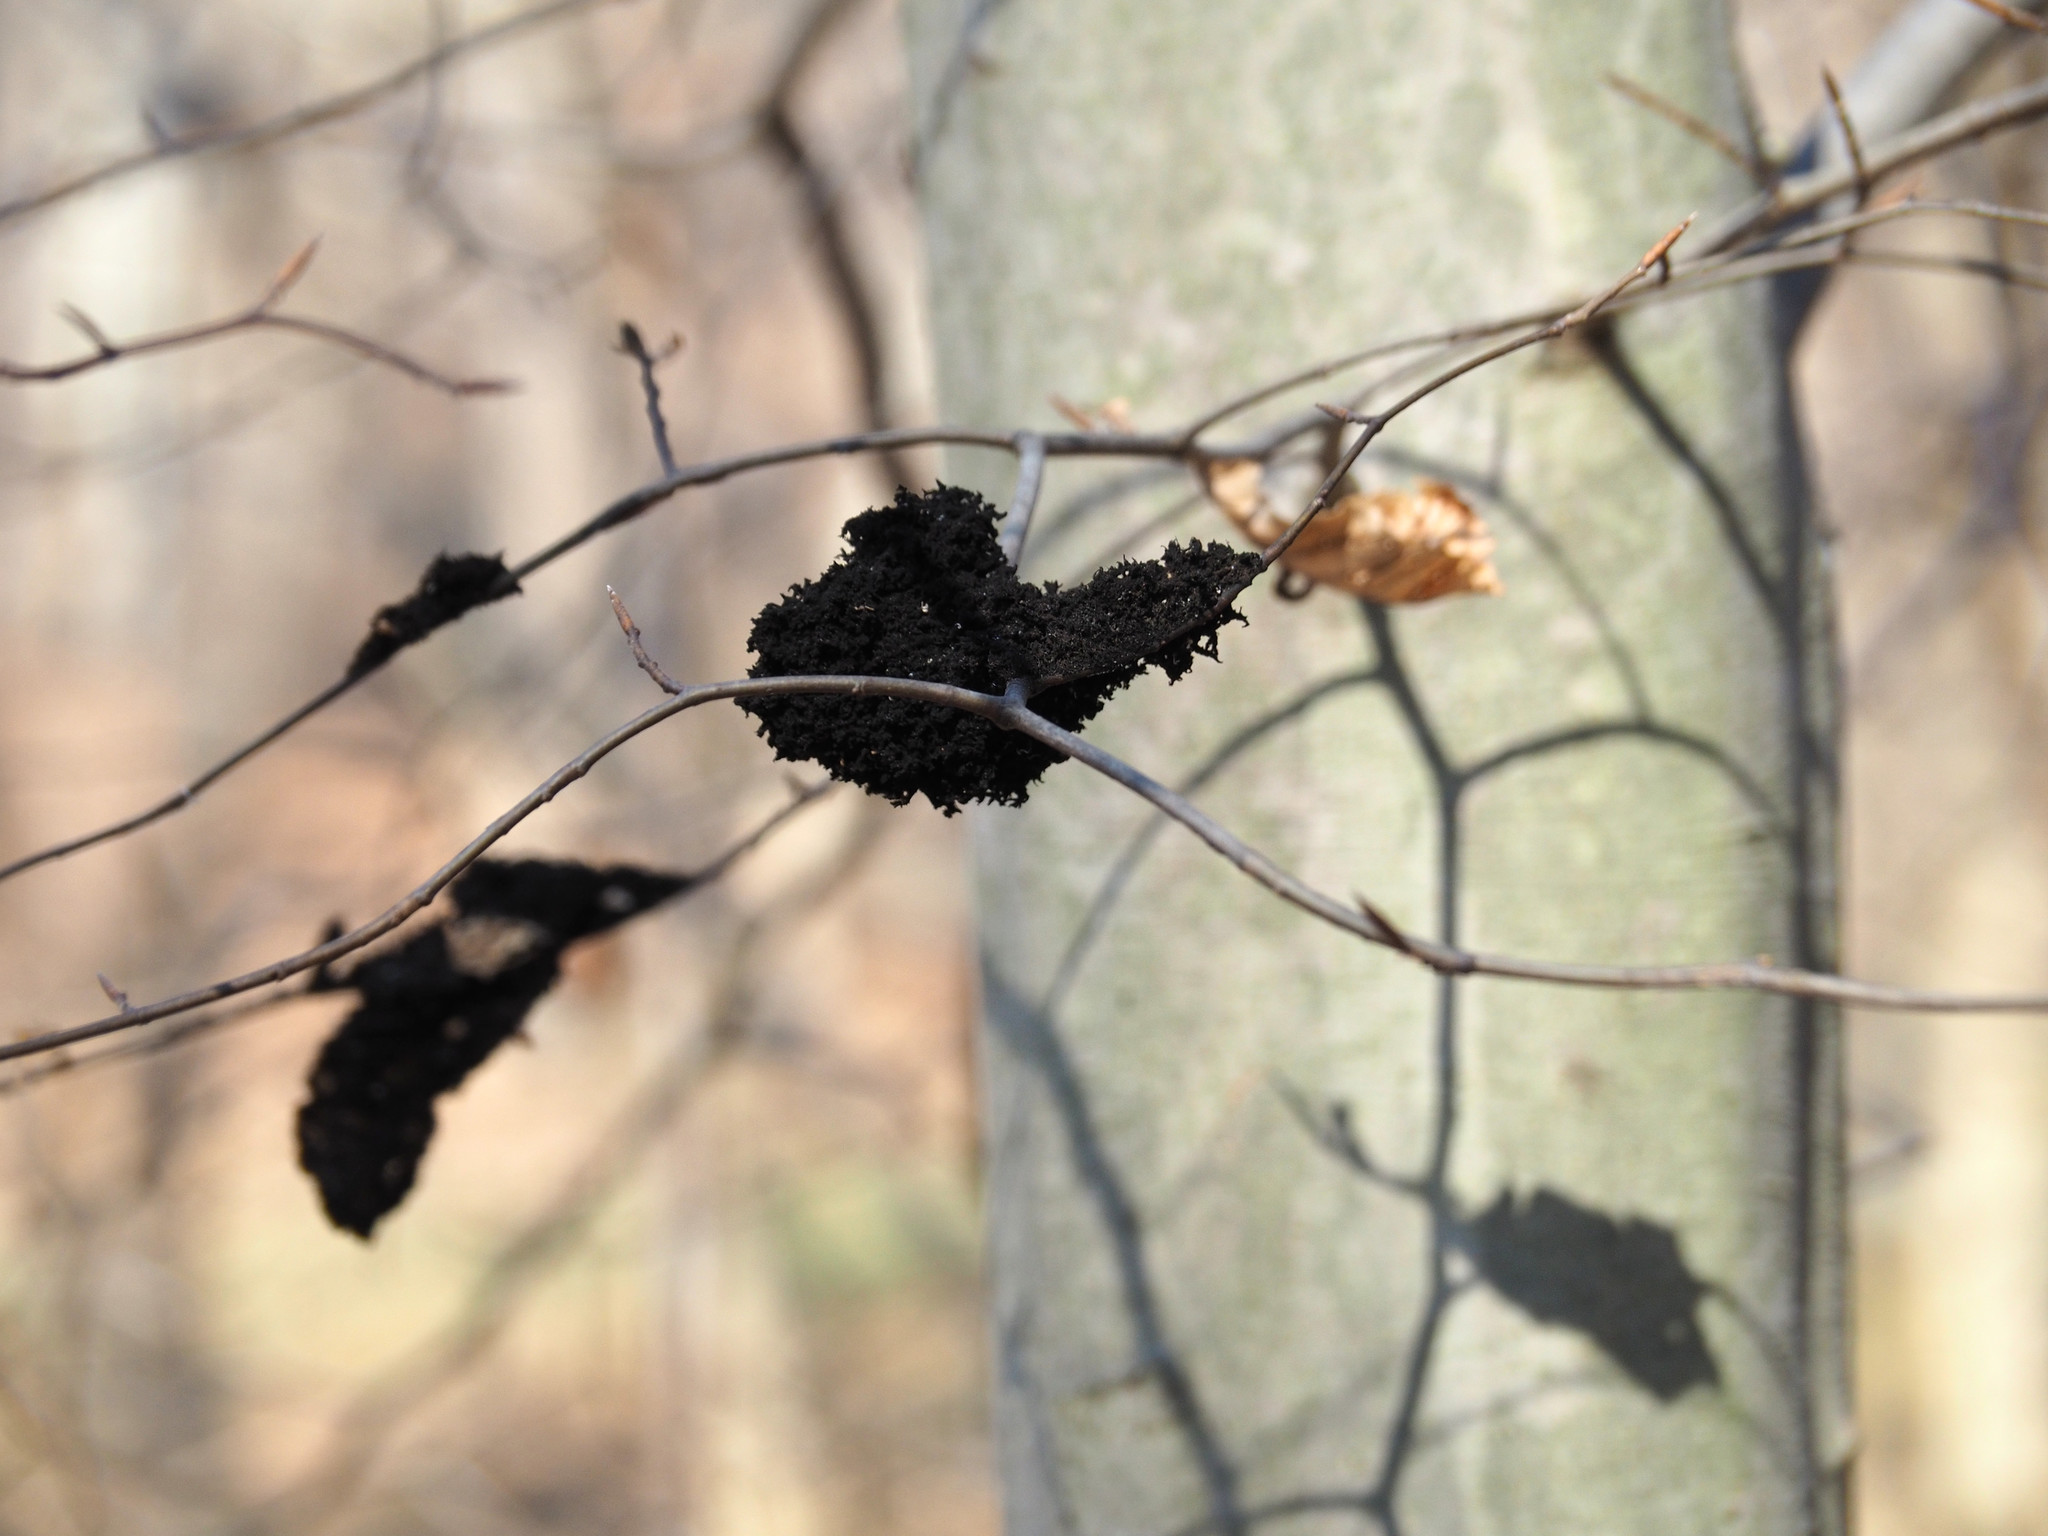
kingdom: Fungi
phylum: Ascomycota
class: Dothideomycetes
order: Capnodiales
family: Capnodiaceae
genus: Scorias
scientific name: Scorias spongiosa
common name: Black sooty mold
